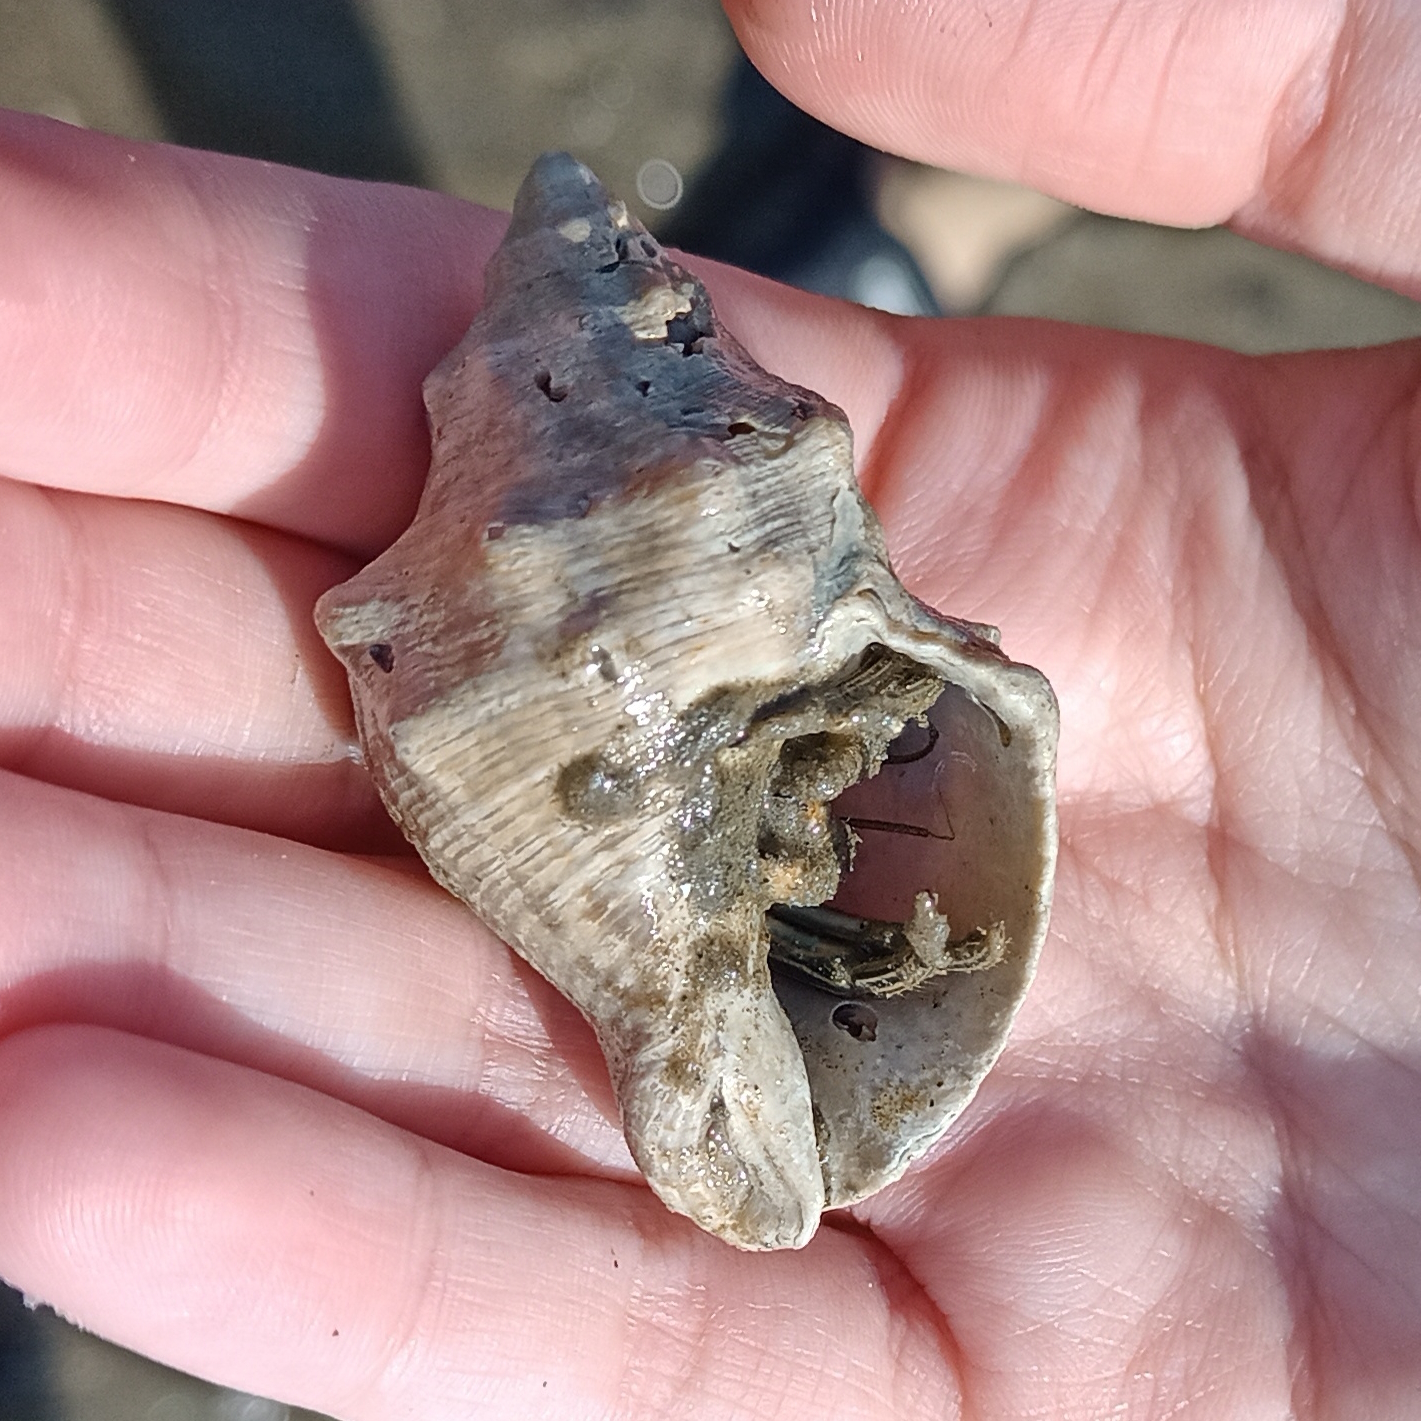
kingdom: Animalia
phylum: Mollusca
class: Gastropoda
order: Neogastropoda
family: Muricidae
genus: Stramonita
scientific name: Stramonita brasiliensis
